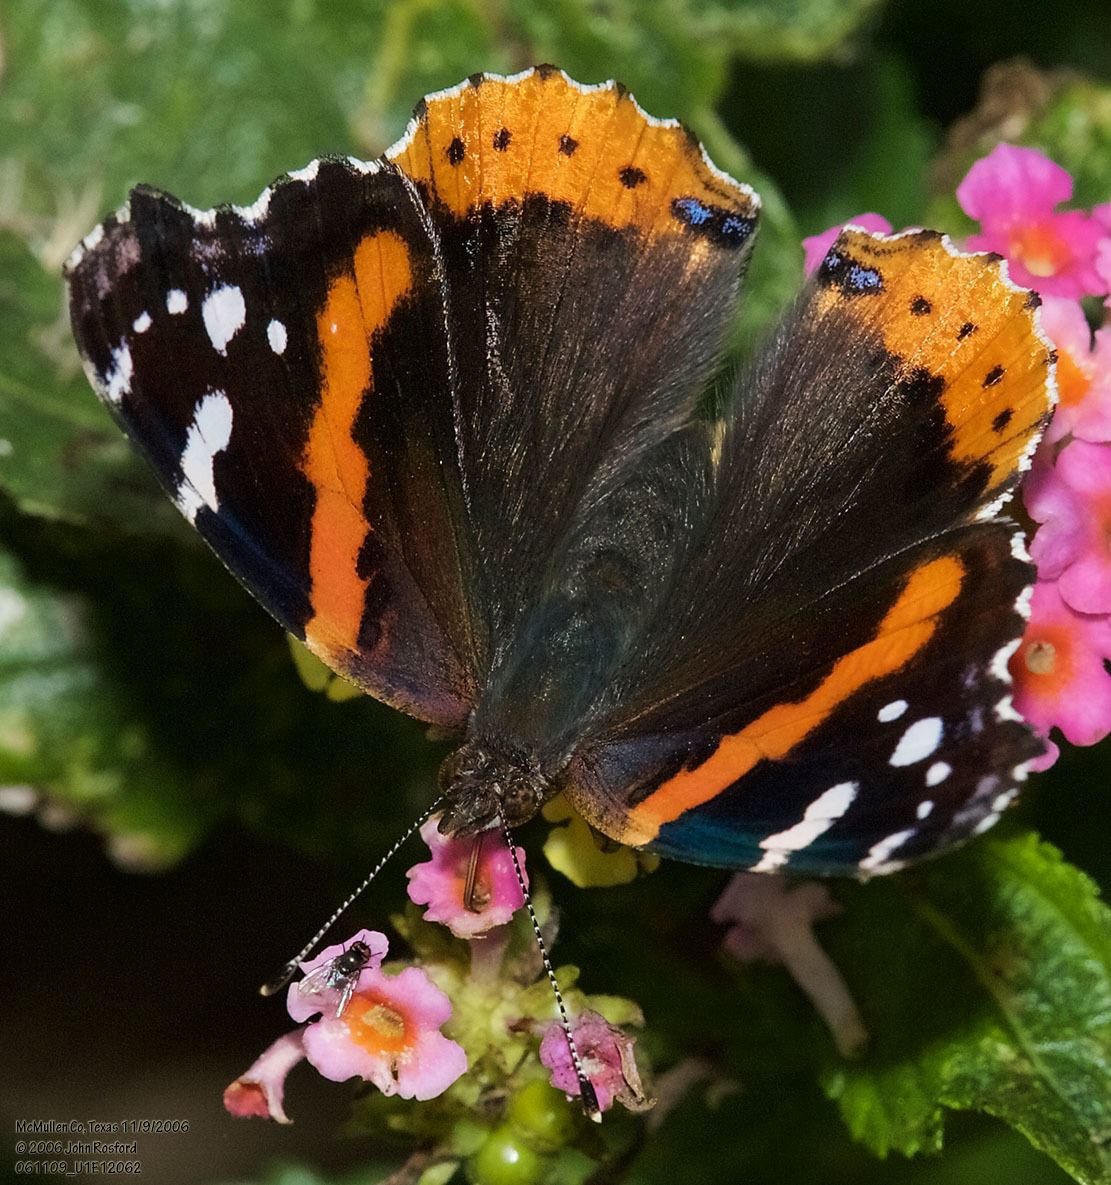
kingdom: Animalia
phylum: Arthropoda
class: Insecta
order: Lepidoptera
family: Nymphalidae
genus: Vanessa
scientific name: Vanessa atalanta
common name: Red admiral
